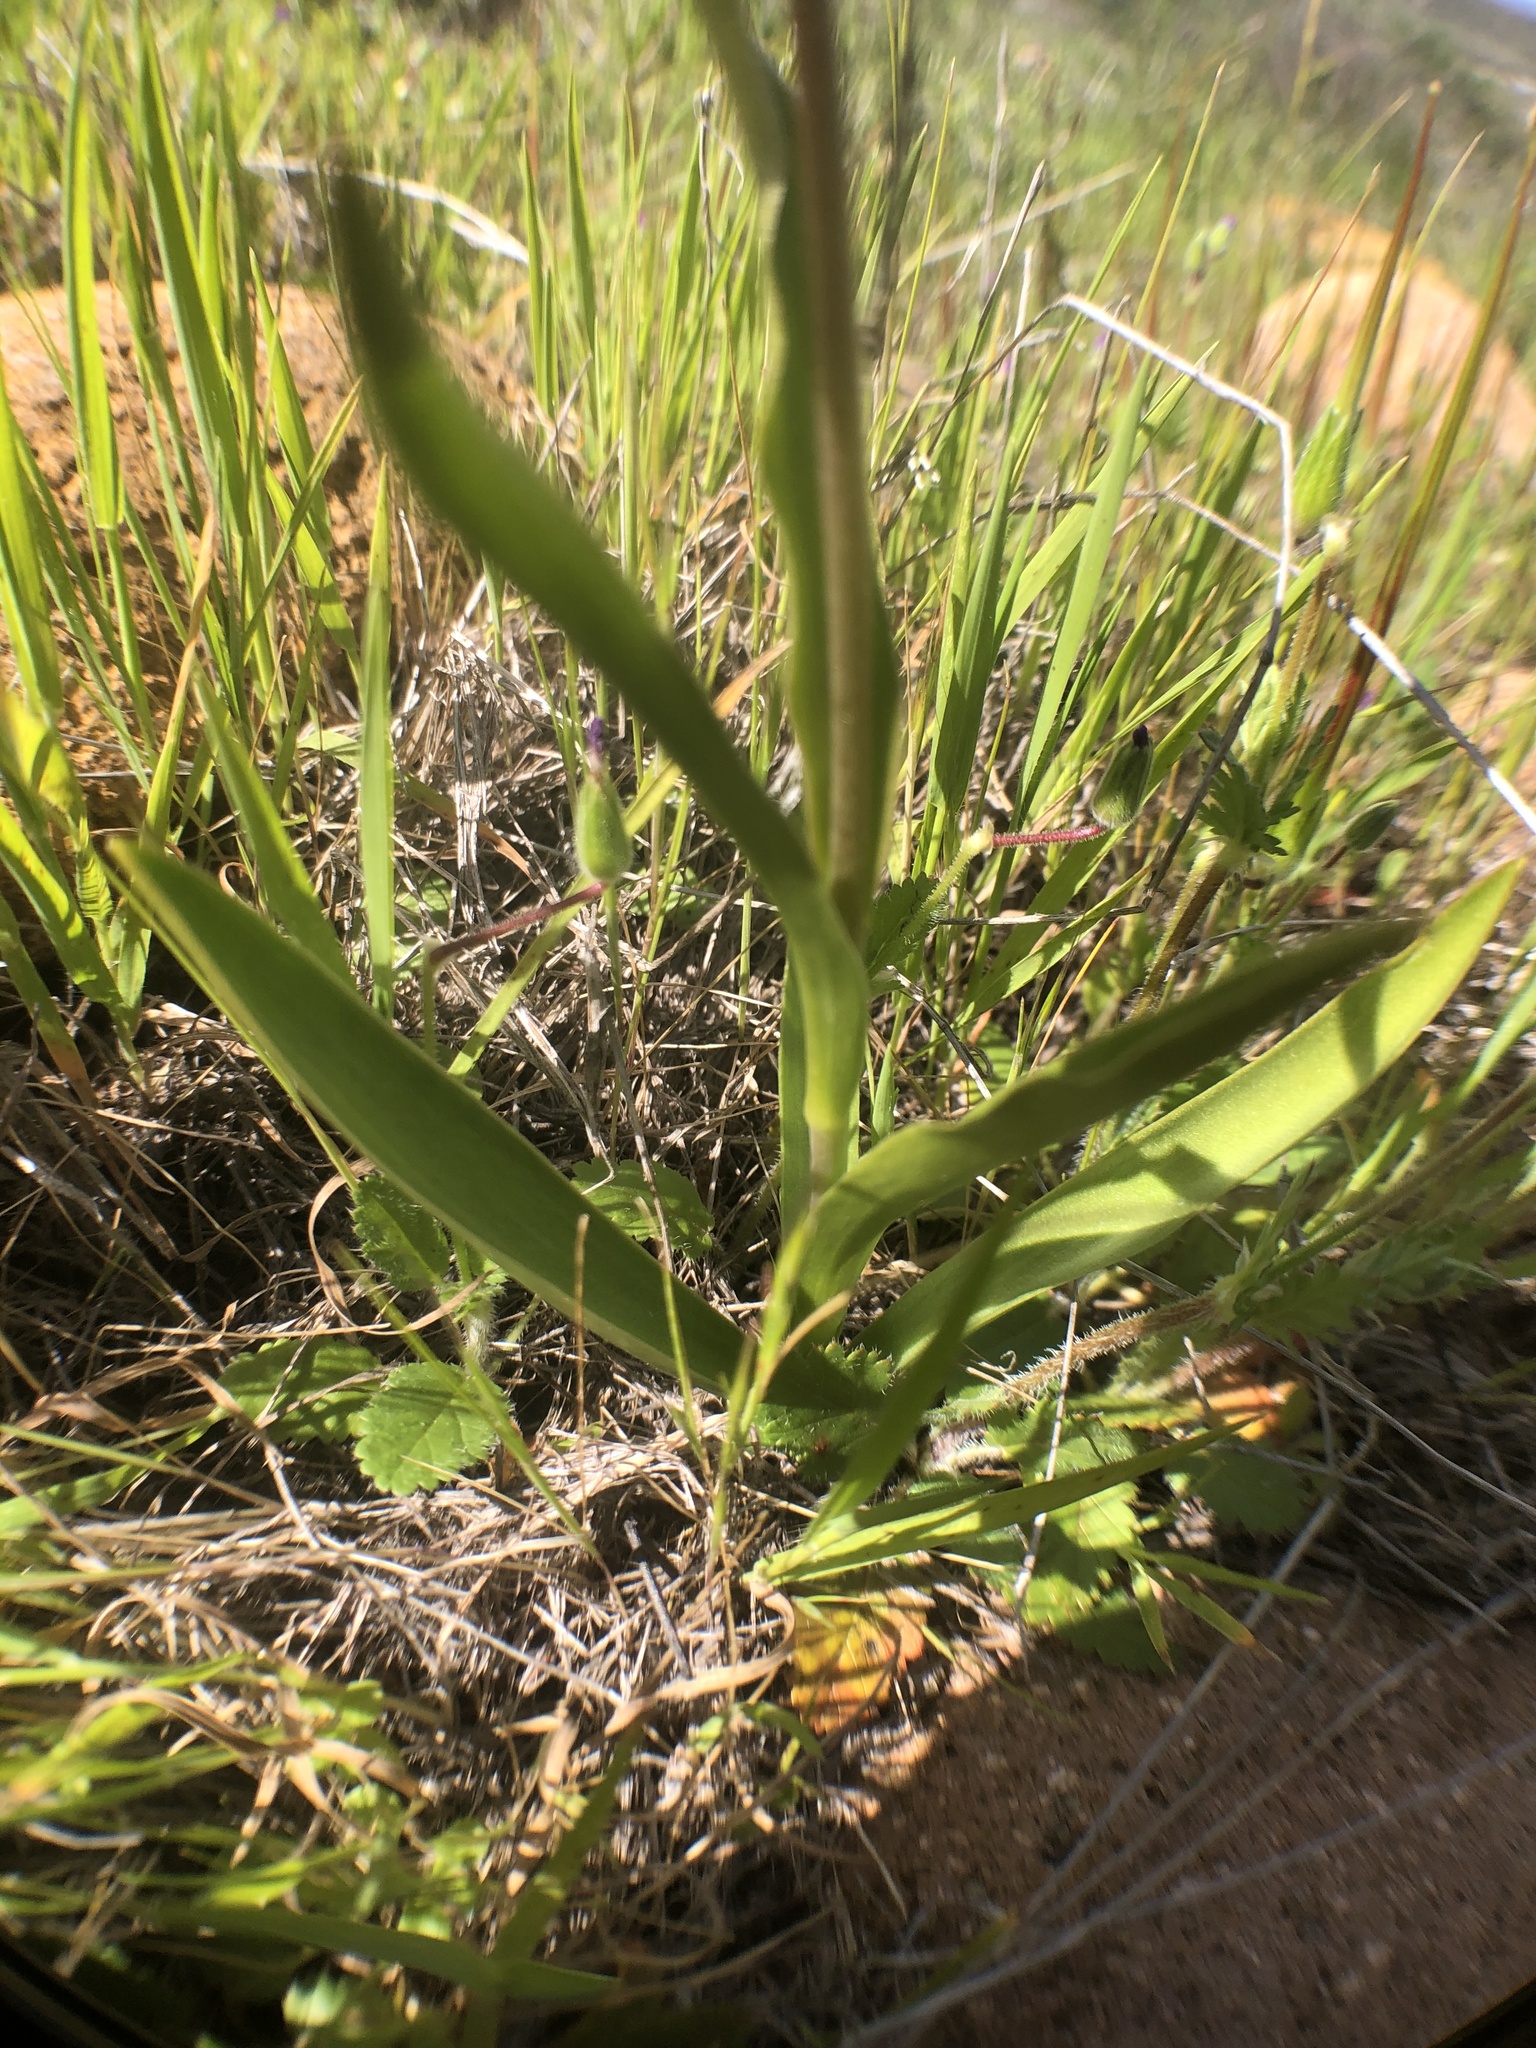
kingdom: Plantae
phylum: Tracheophyta
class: Liliopsida
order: Liliales
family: Liliaceae
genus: Fritillaria
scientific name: Fritillaria biflora
